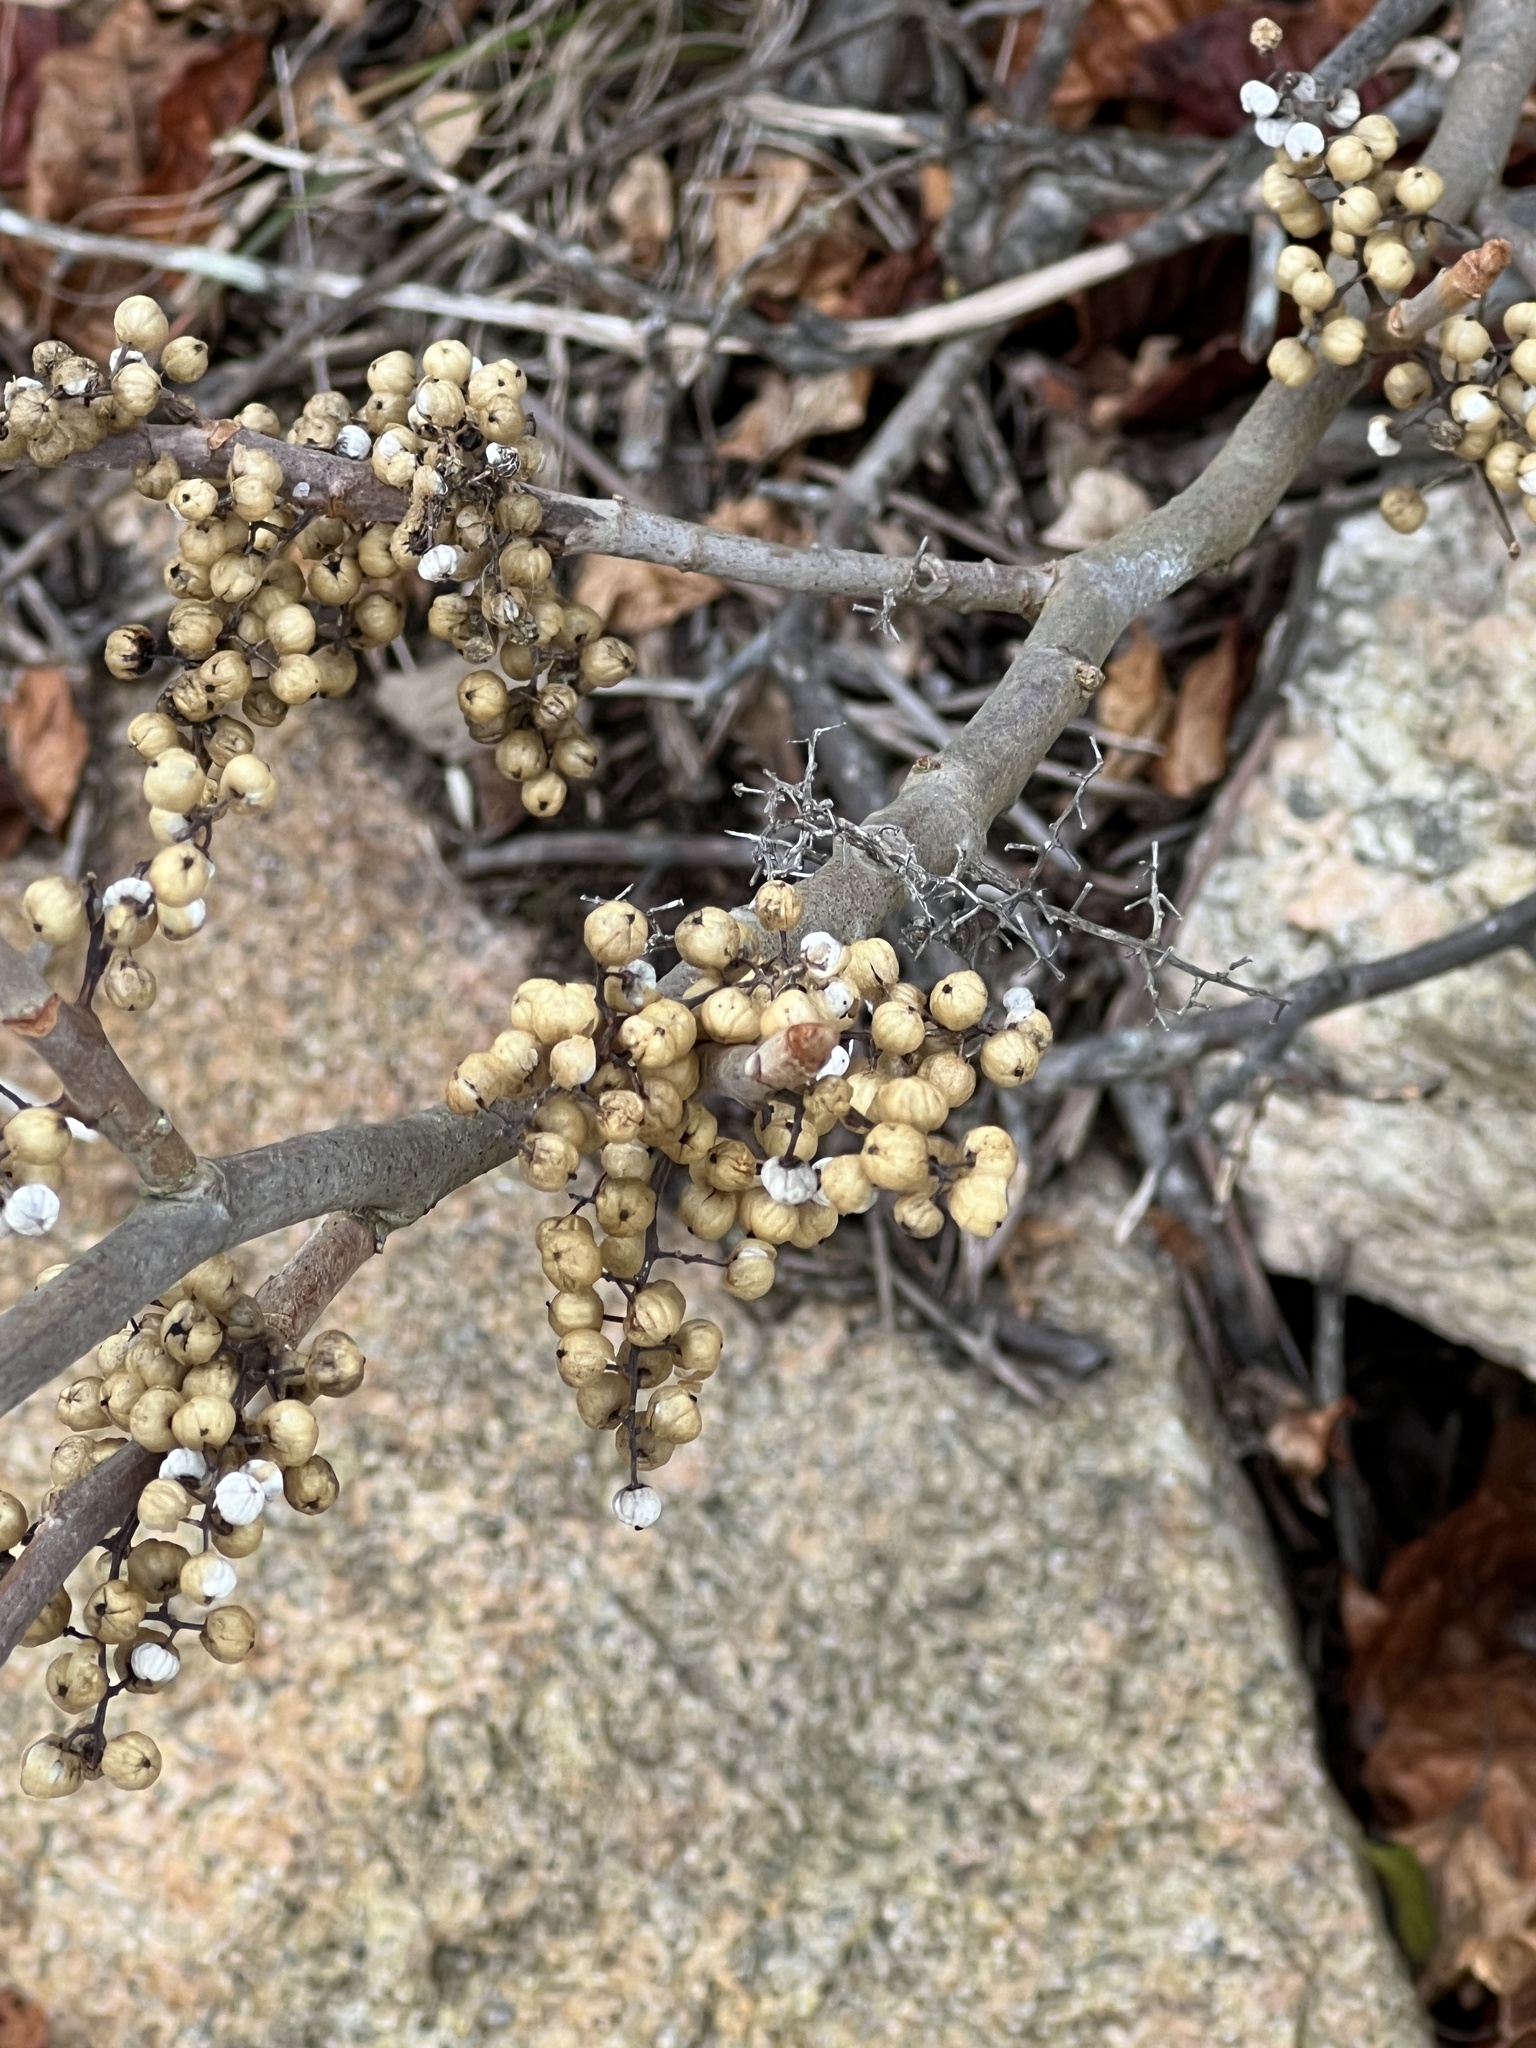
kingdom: Plantae
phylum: Tracheophyta
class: Magnoliopsida
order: Sapindales
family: Anacardiaceae
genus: Toxicodendron
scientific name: Toxicodendron radicans
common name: Poison ivy
